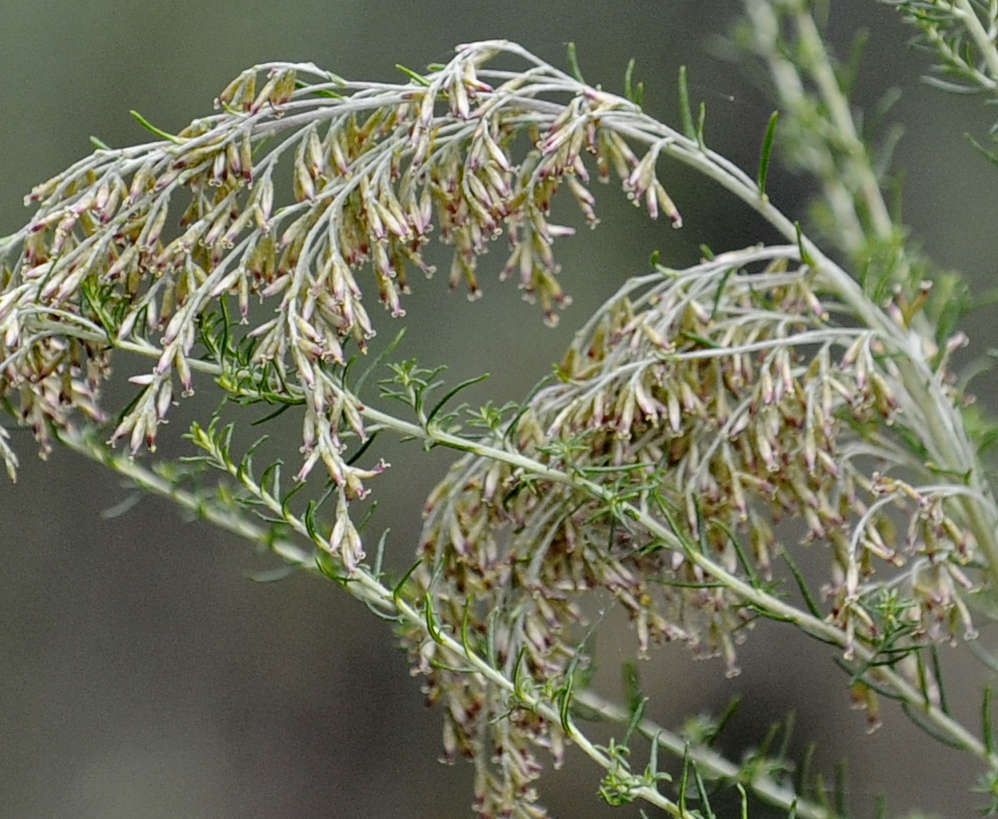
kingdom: Plantae
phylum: Tracheophyta
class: Magnoliopsida
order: Asterales
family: Asteraceae
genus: Cassinia
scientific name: Cassinia sifton
